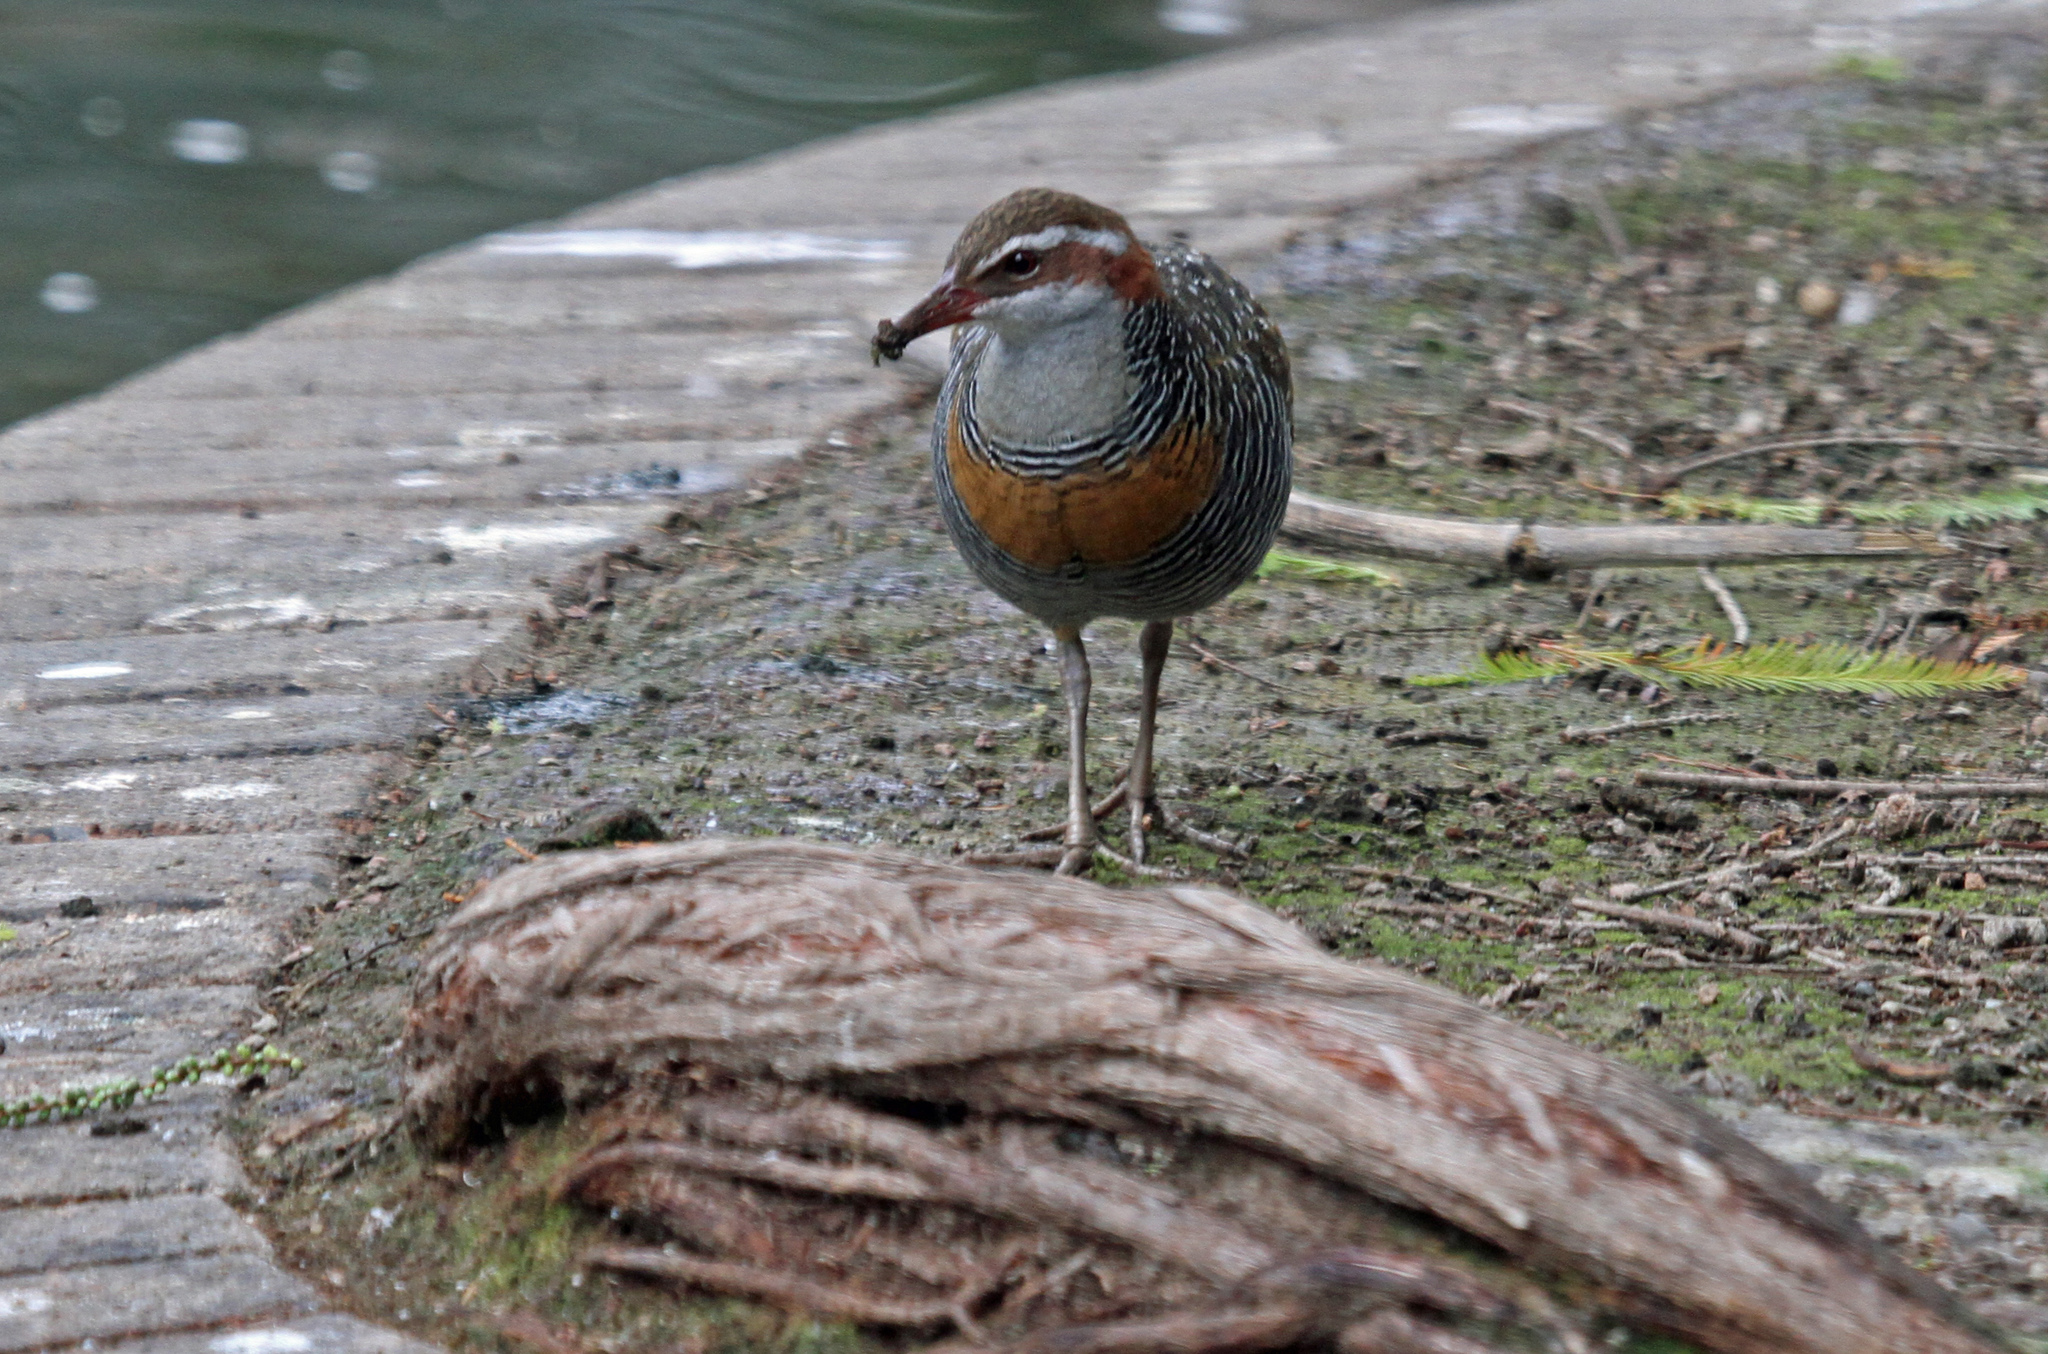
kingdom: Animalia
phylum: Chordata
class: Aves
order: Gruiformes
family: Rallidae
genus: Gallirallus
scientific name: Gallirallus philippensis
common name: Buff-banded rail
